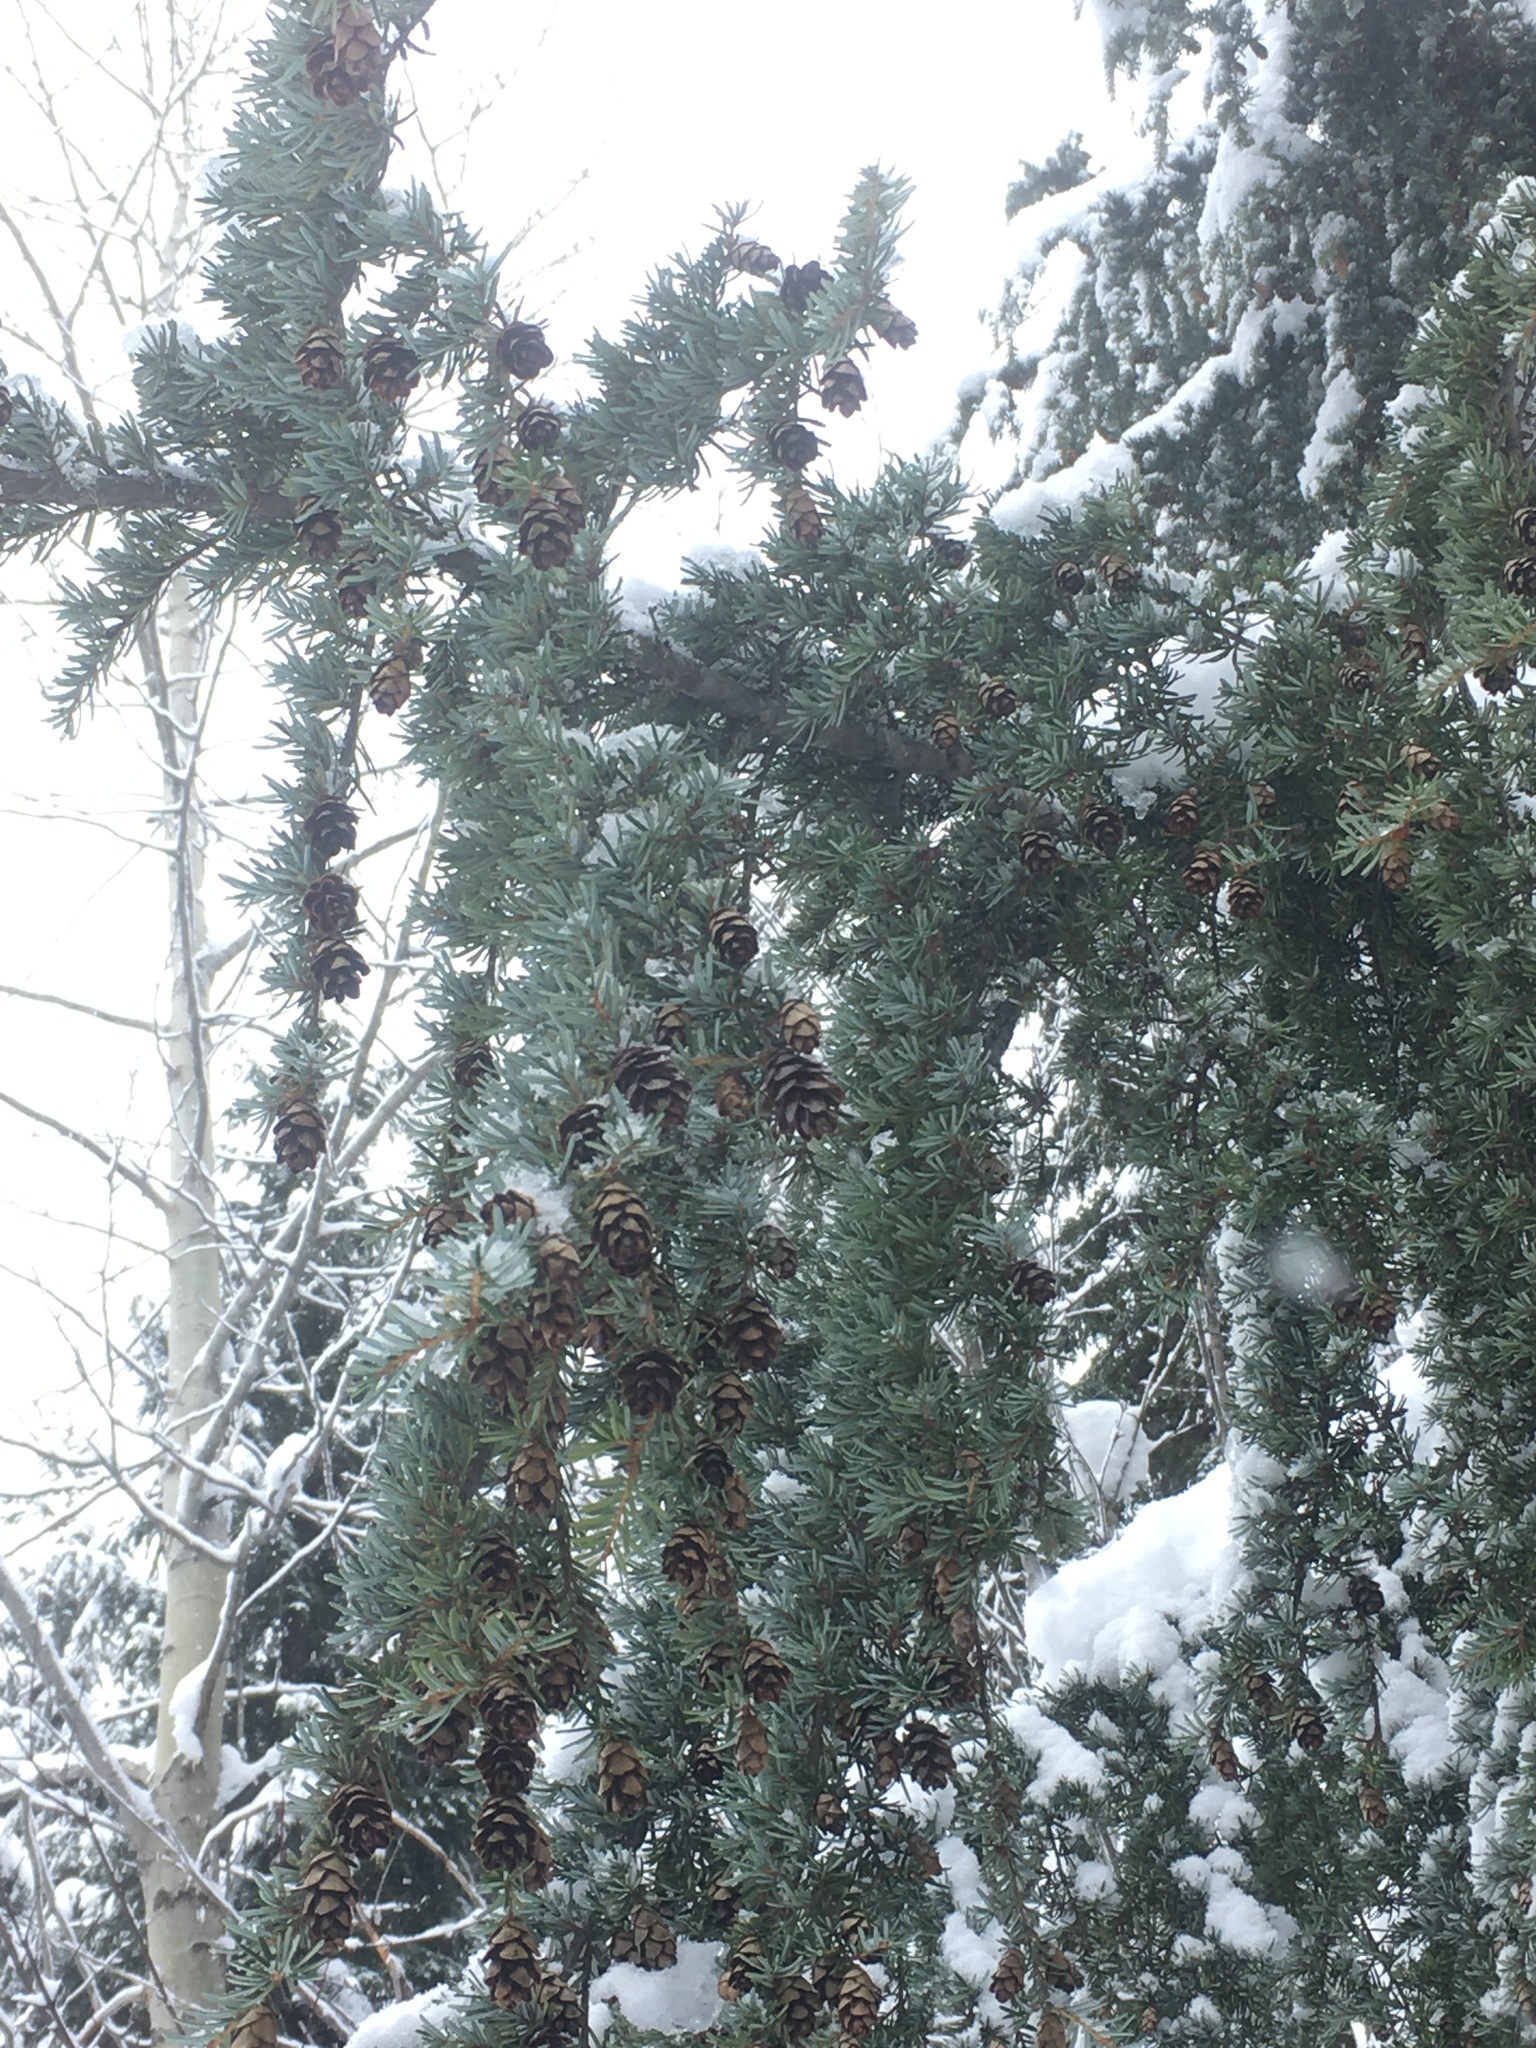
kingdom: Plantae
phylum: Tracheophyta
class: Pinopsida
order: Pinales
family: Pinaceae
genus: Tsuga
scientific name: Tsuga mertensiana
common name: Mountain hemlock
